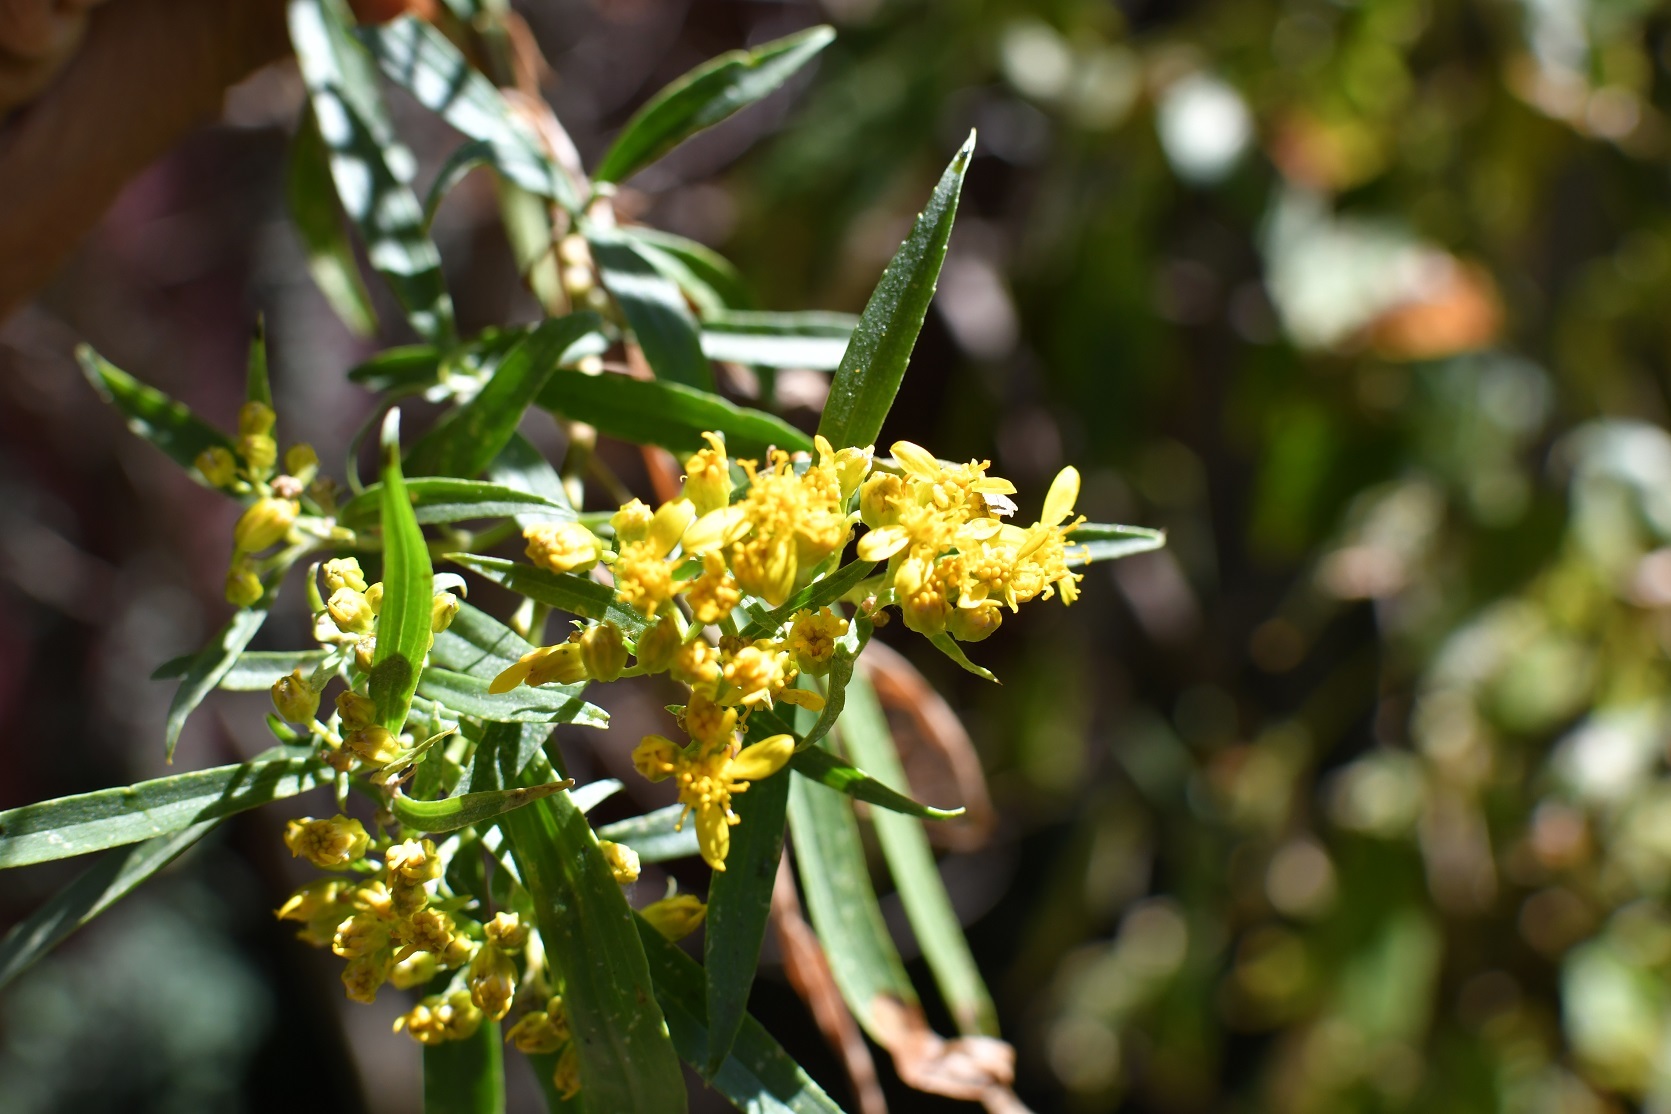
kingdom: Plantae
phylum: Tracheophyta
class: Magnoliopsida
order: Asterales
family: Asteraceae
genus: Barkleyanthus
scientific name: Barkleyanthus salicifolius
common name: Willow ragwort
